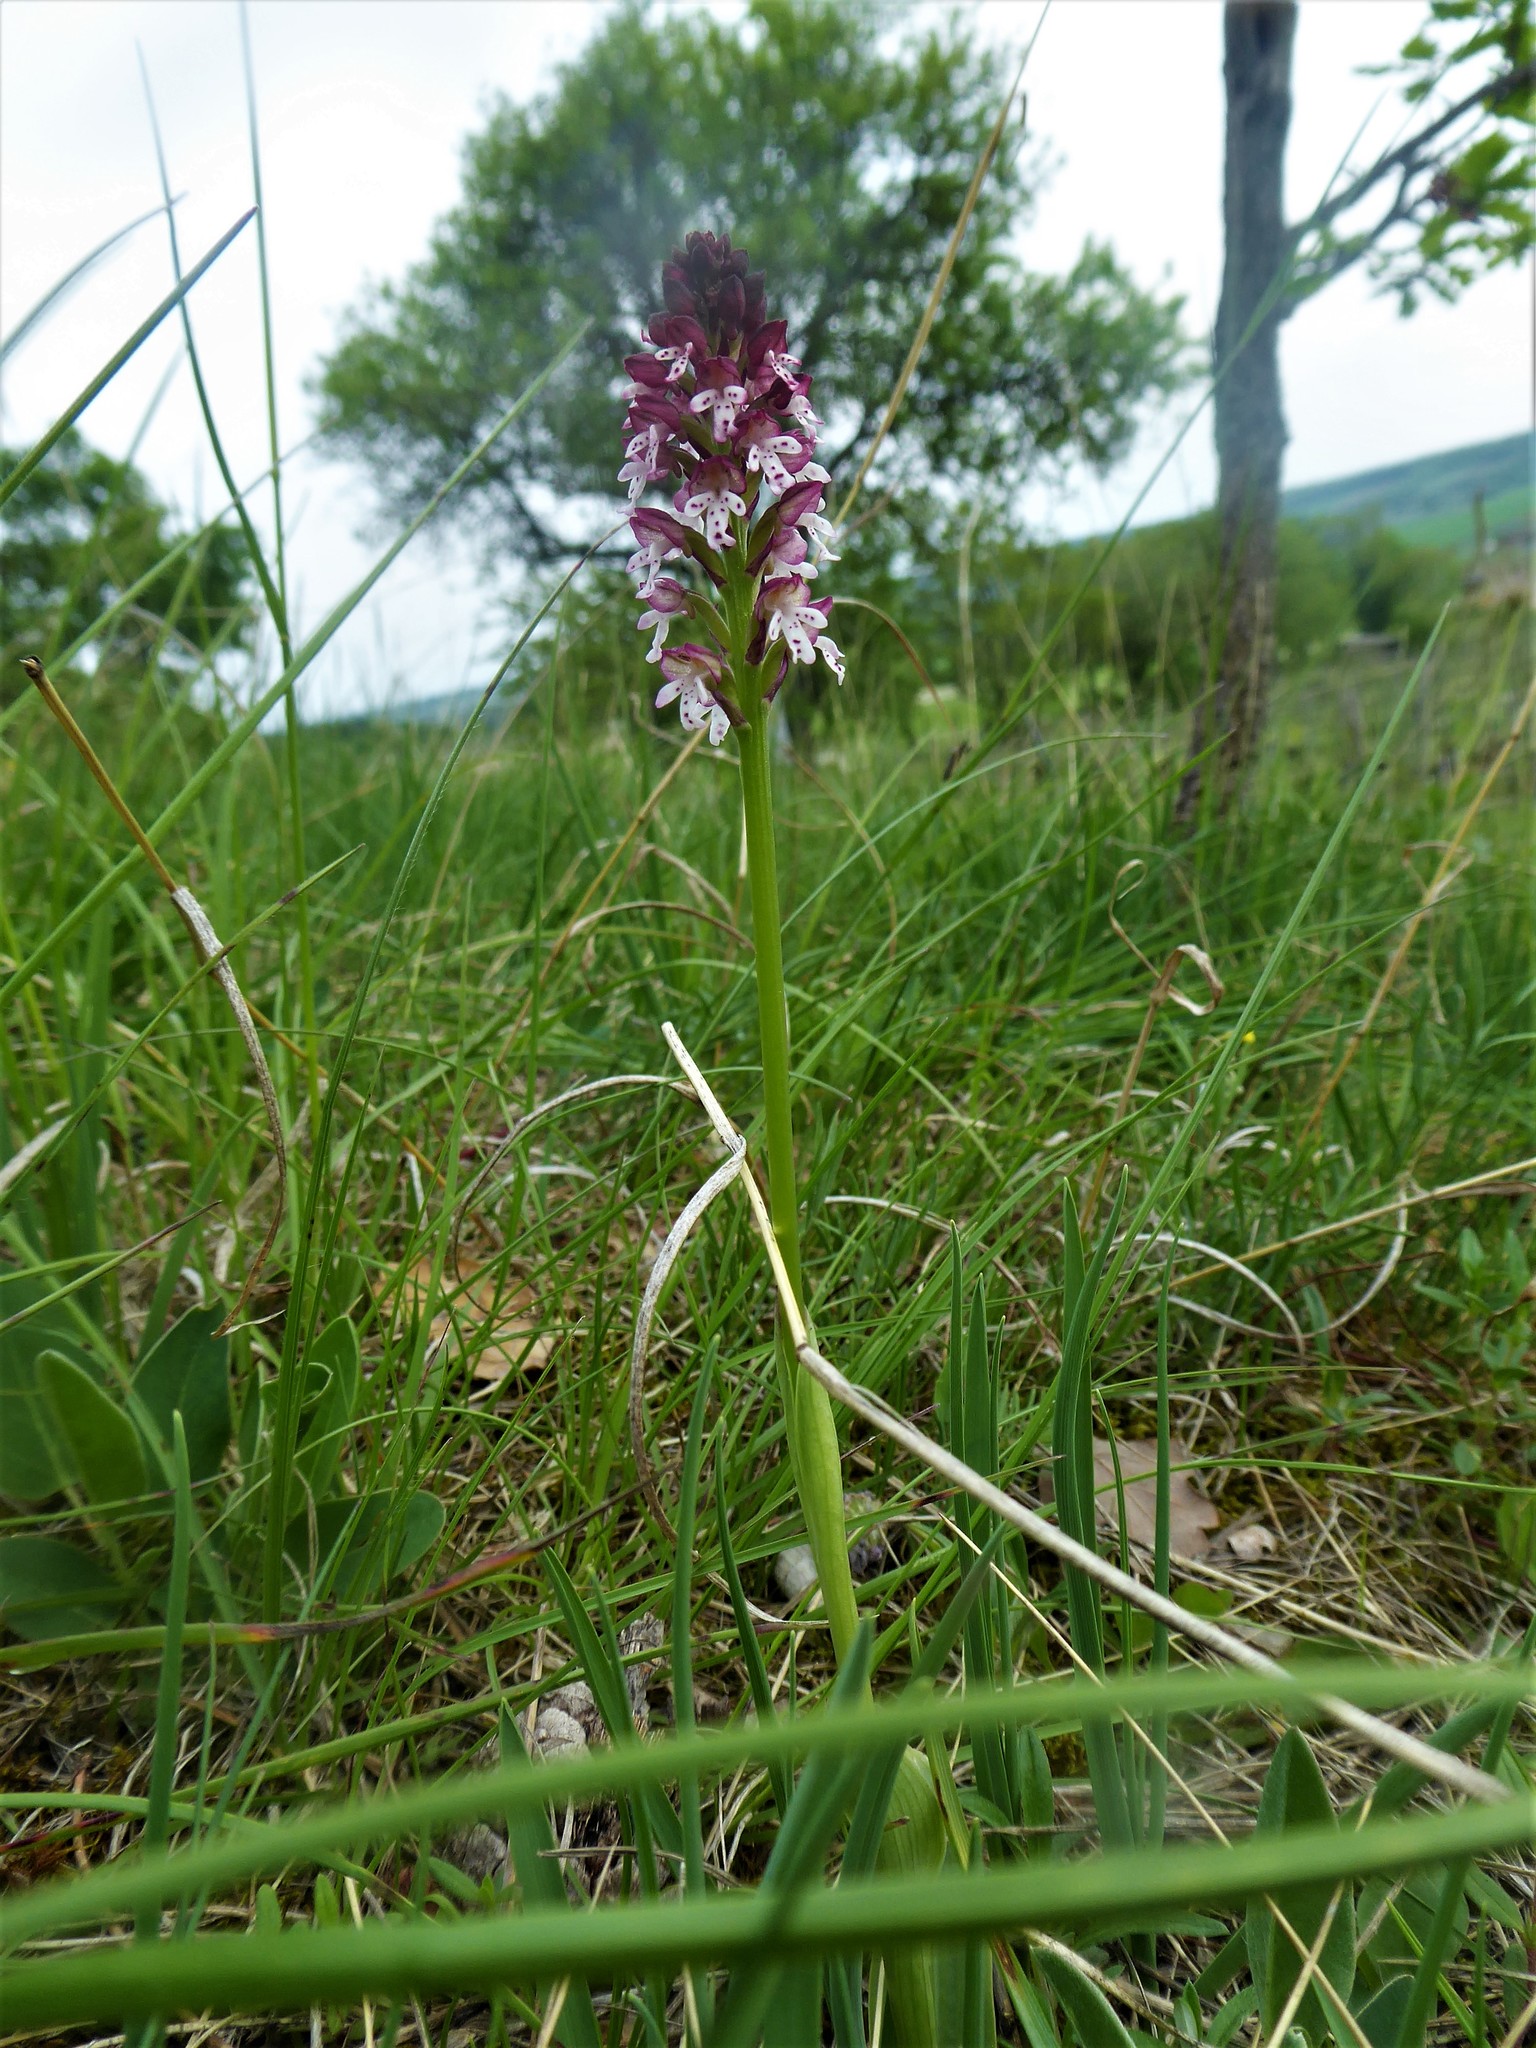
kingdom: Plantae
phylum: Tracheophyta
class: Liliopsida
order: Asparagales
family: Orchidaceae
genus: Neotinea
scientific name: Neotinea ustulata
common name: Burnt orchid
